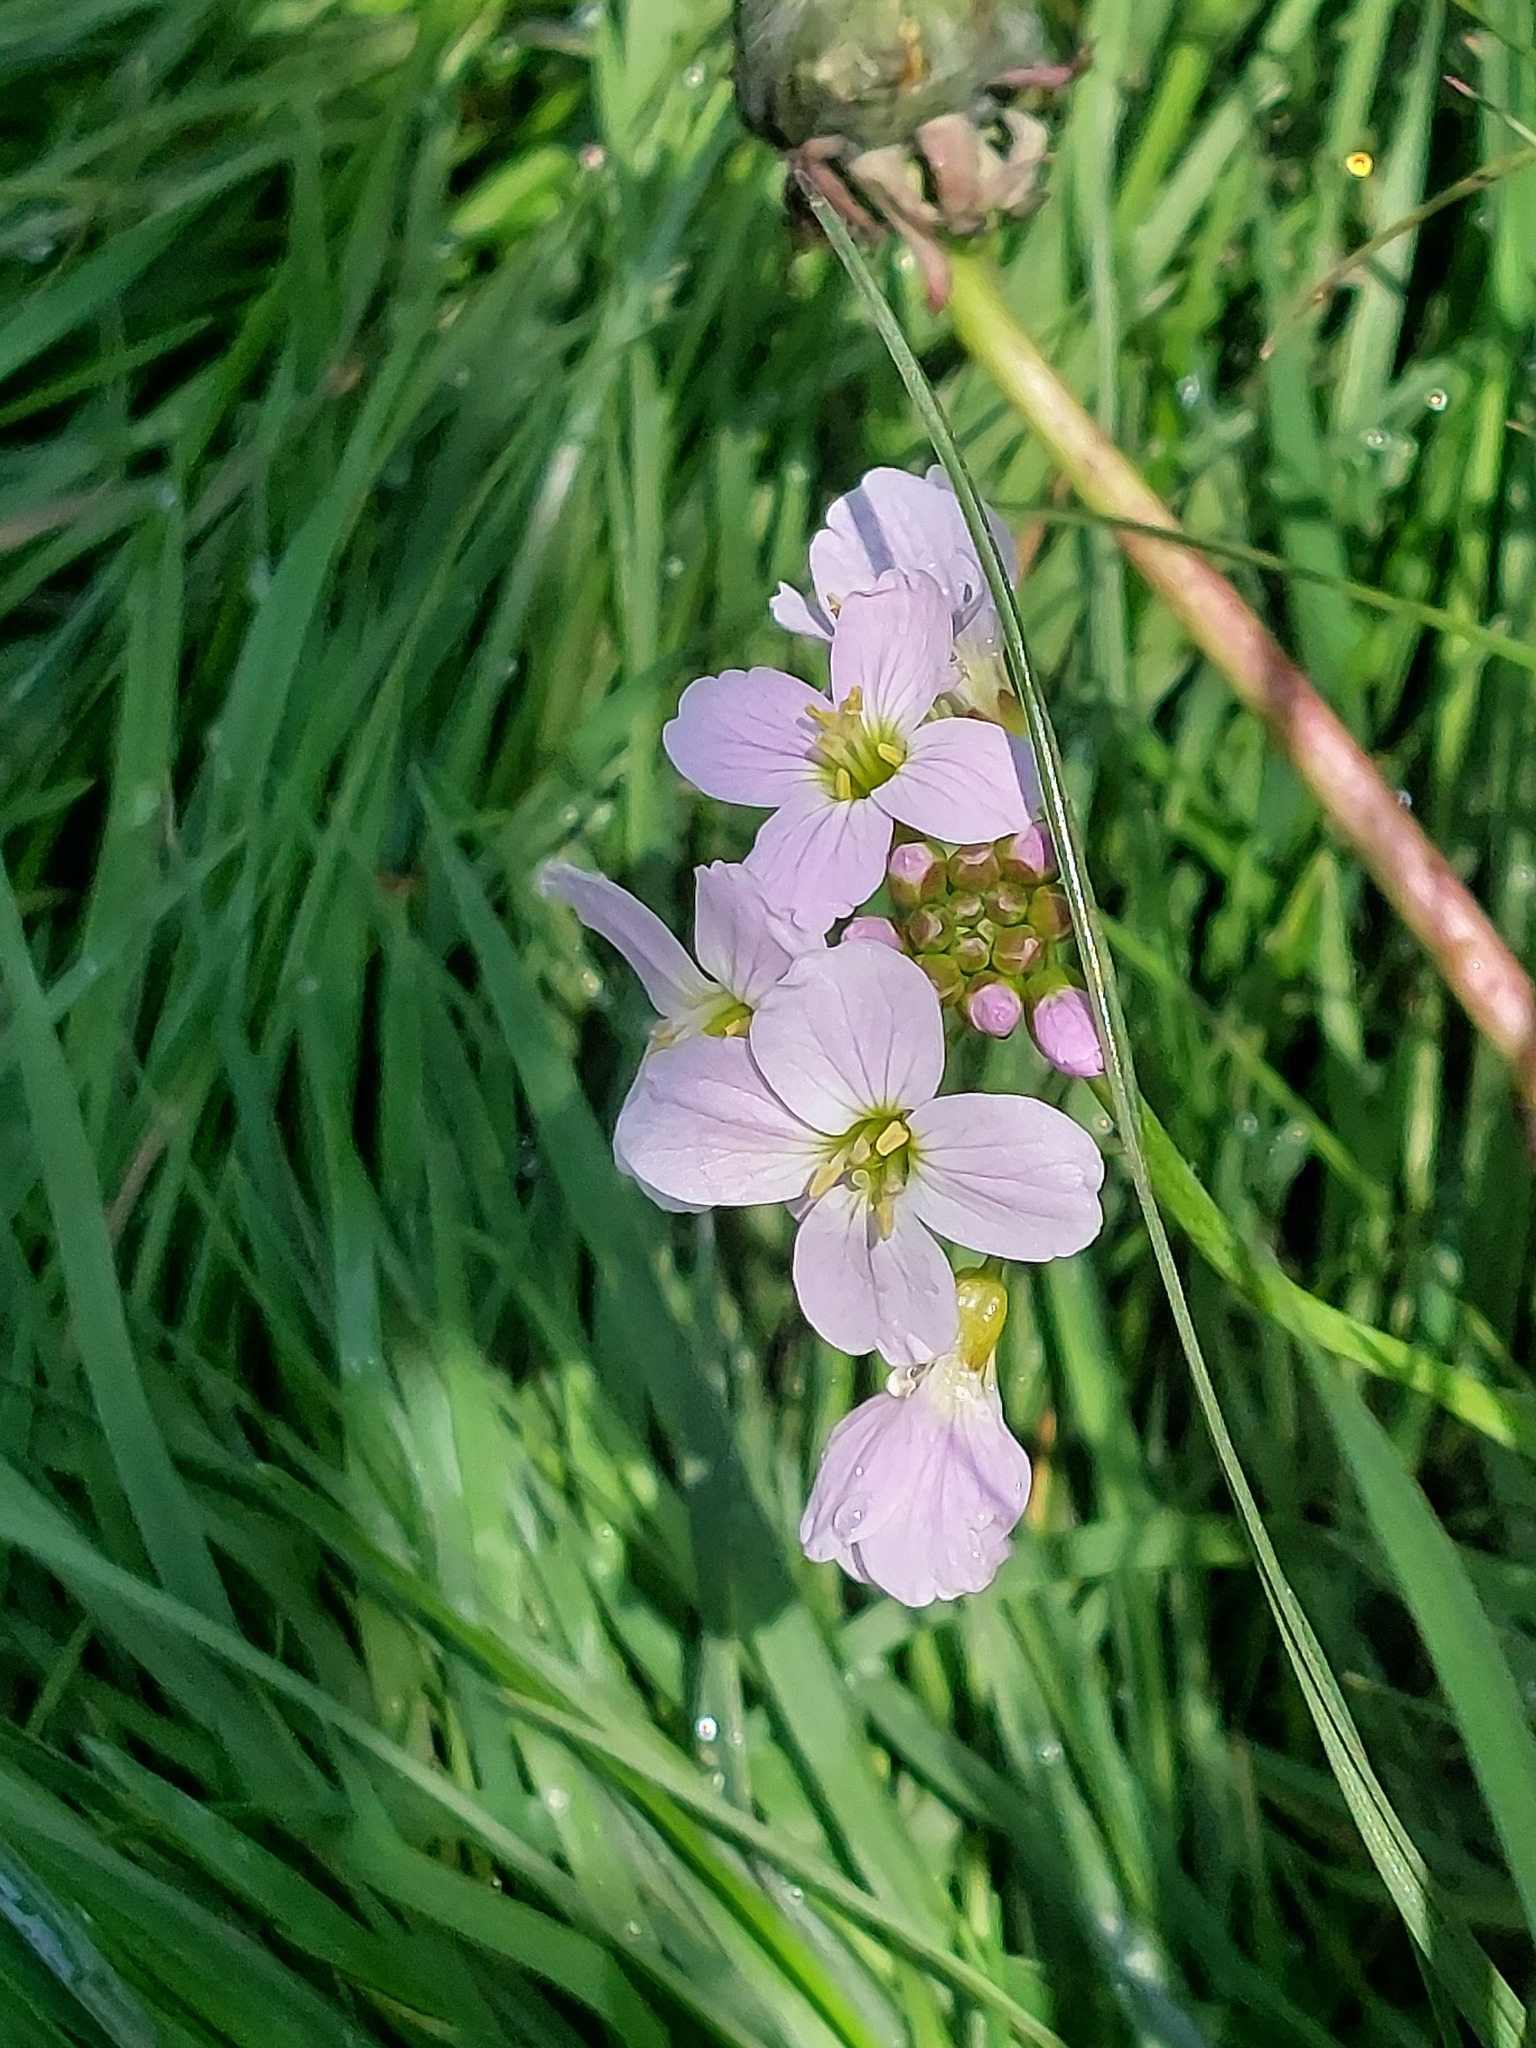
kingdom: Plantae
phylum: Tracheophyta
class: Magnoliopsida
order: Brassicales
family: Brassicaceae
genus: Cardamine
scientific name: Cardamine pratensis
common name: Cuckoo flower
